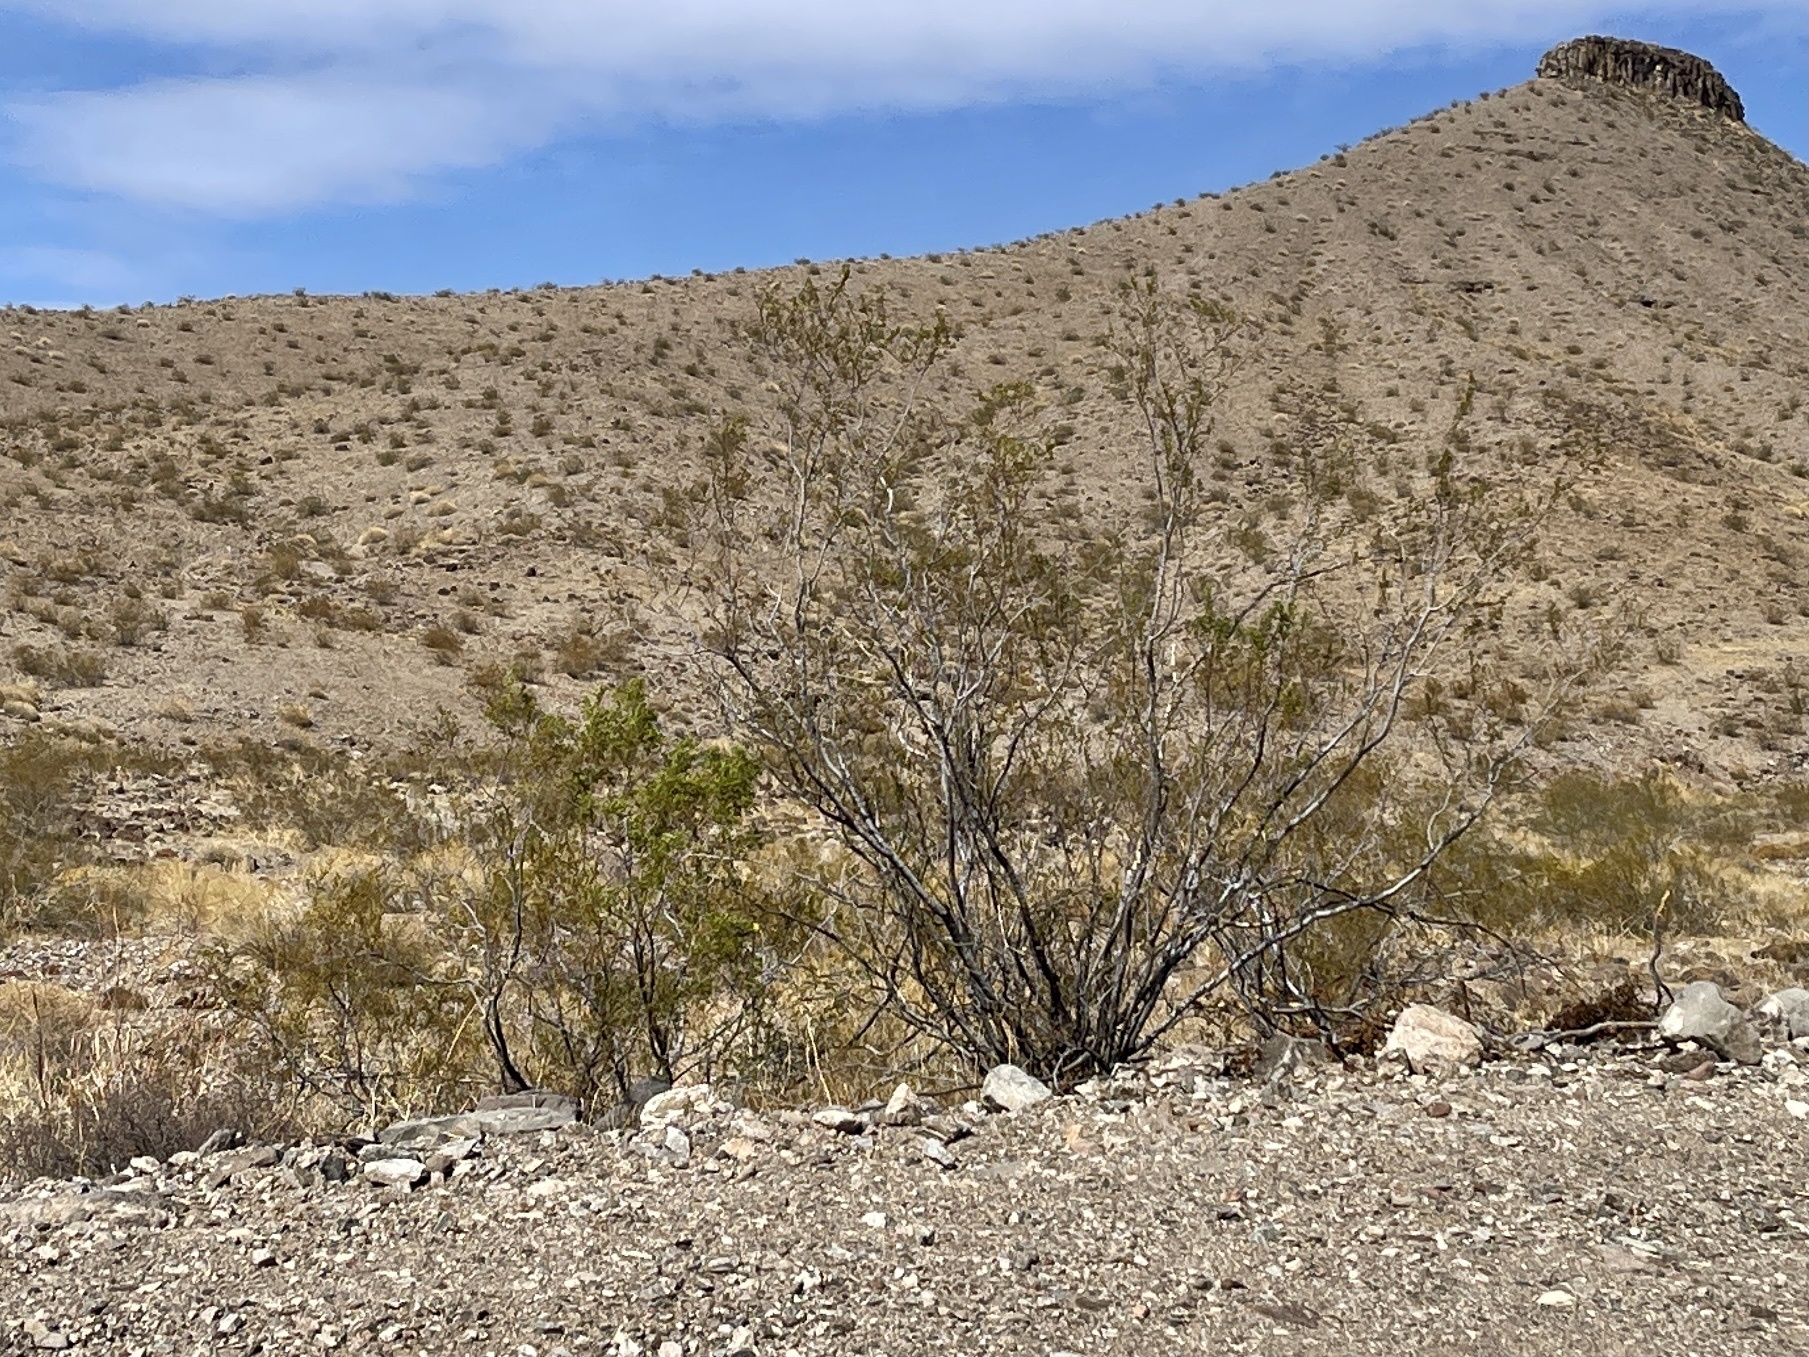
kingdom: Plantae
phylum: Tracheophyta
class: Magnoliopsida
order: Zygophyllales
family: Zygophyllaceae
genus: Larrea
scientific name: Larrea tridentata
